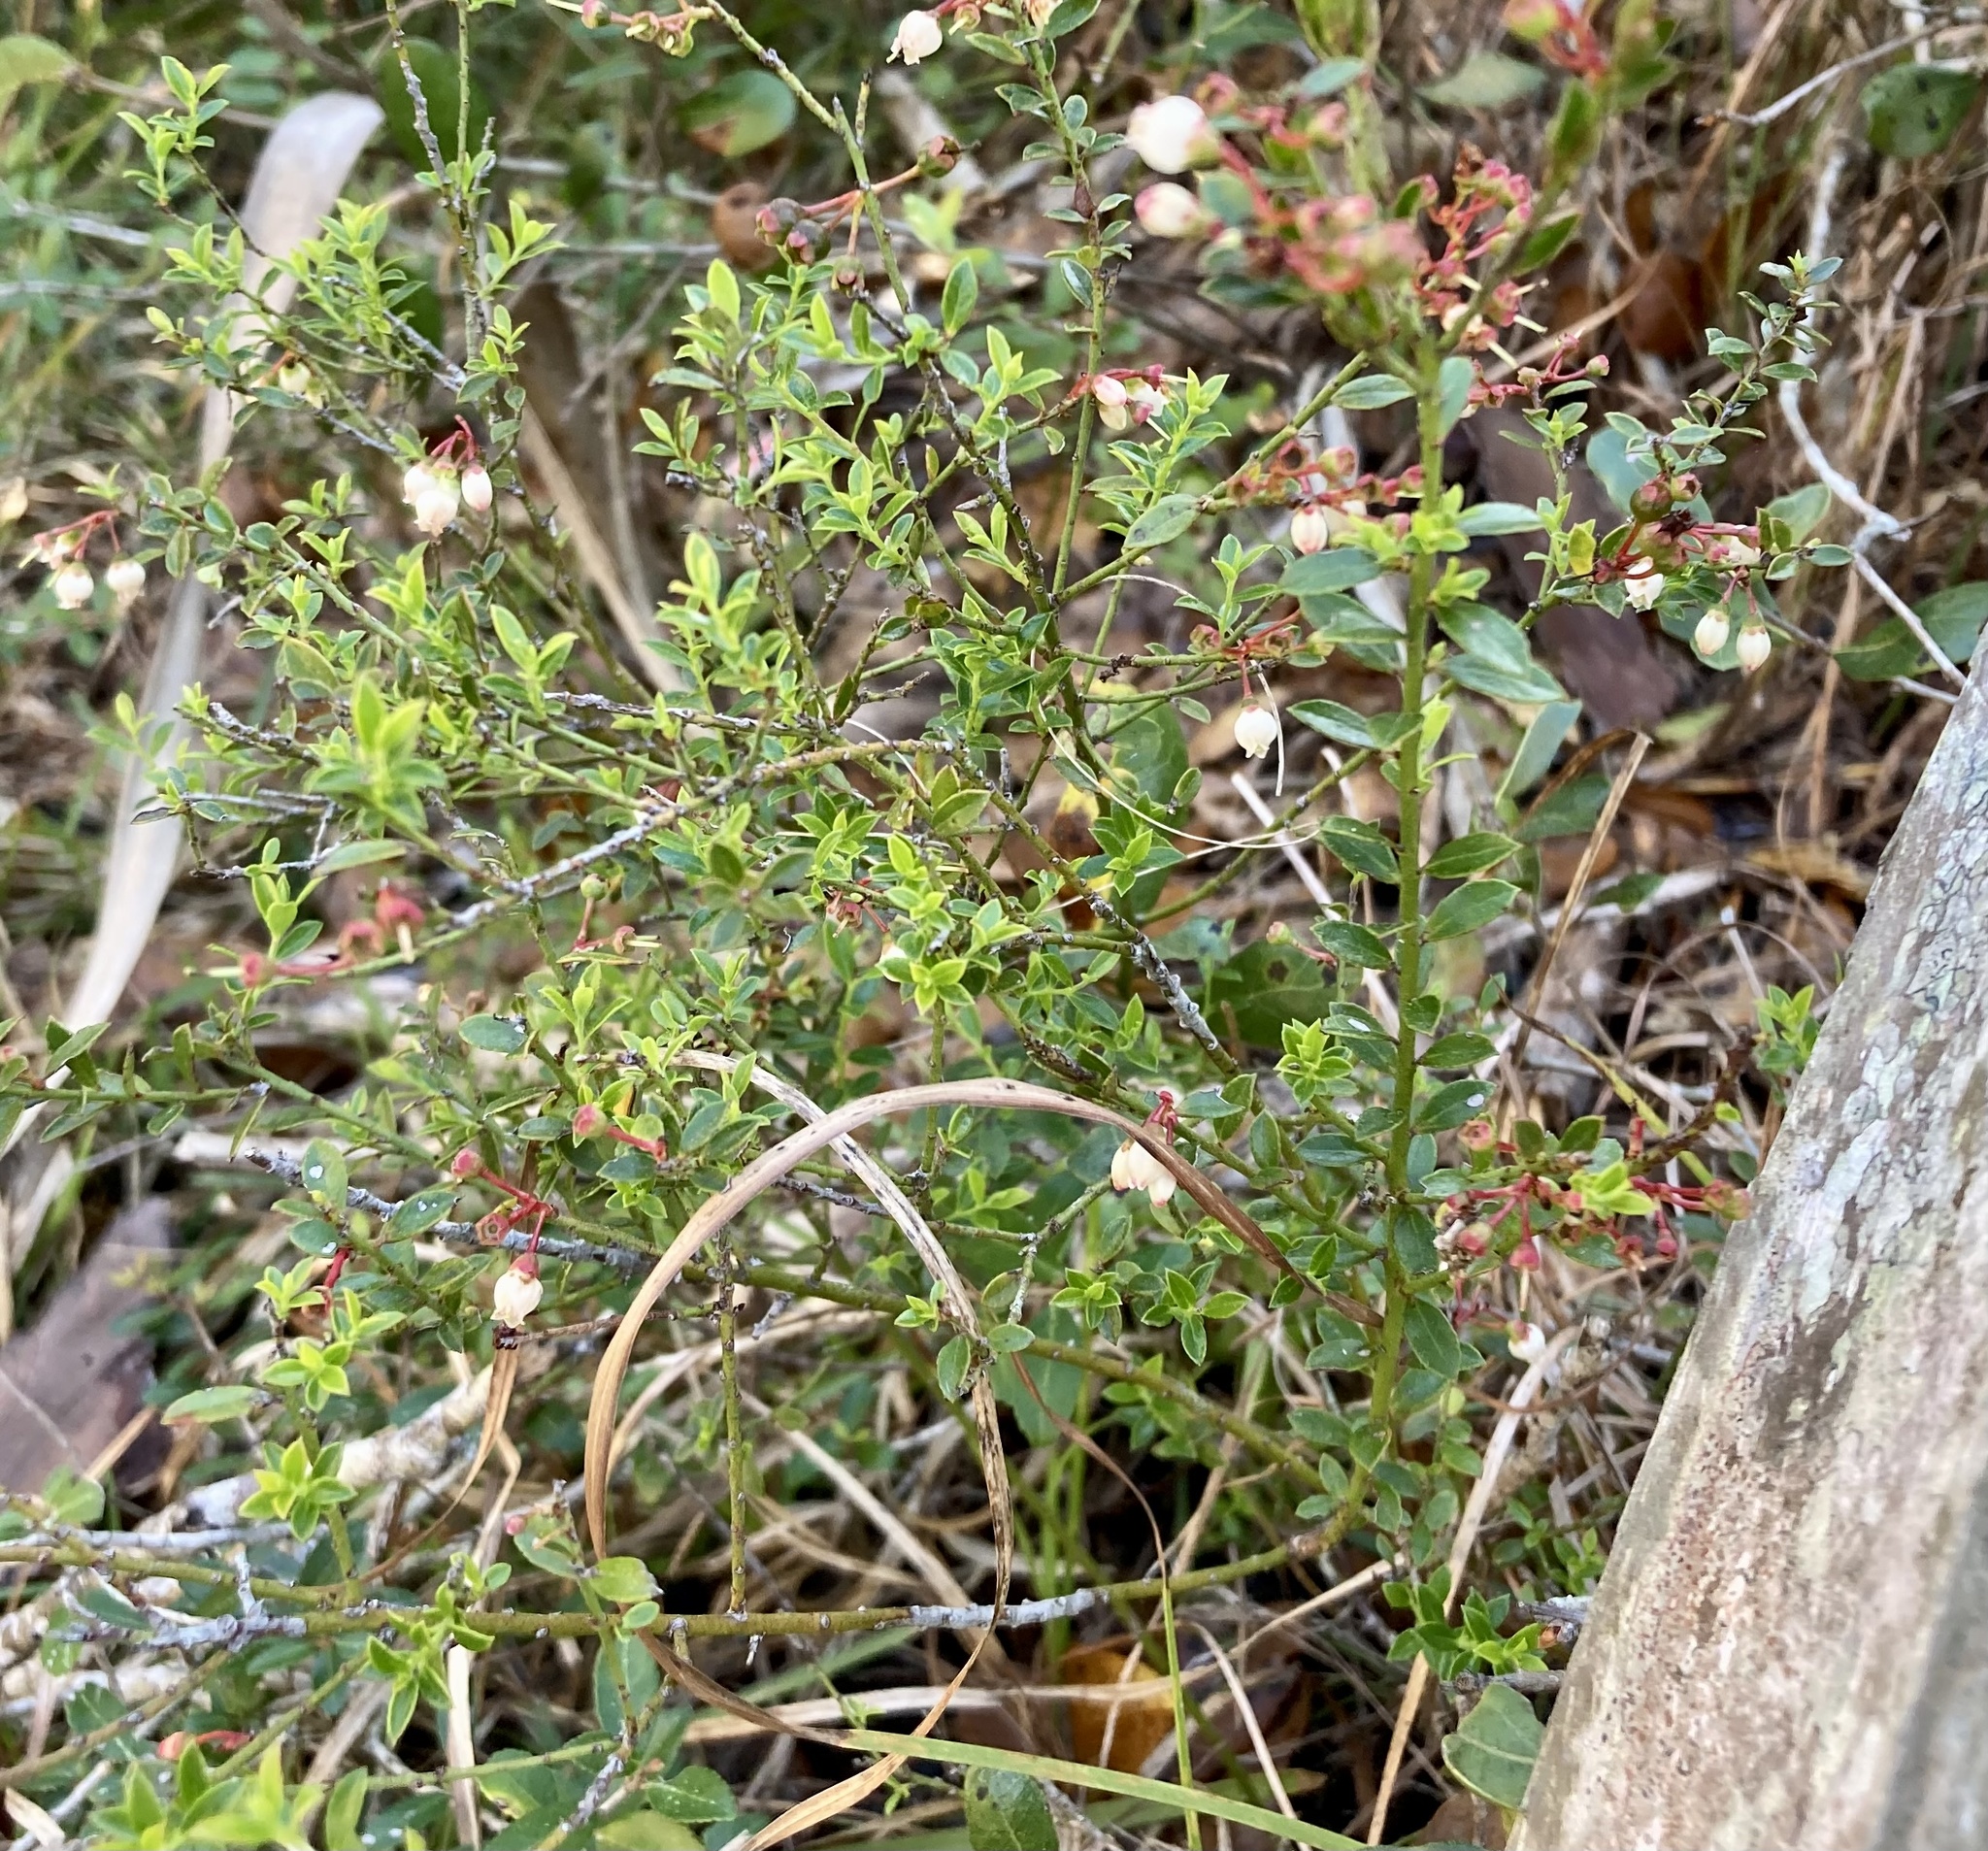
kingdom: Plantae
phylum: Tracheophyta
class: Magnoliopsida
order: Ericales
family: Ericaceae
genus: Vaccinium
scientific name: Vaccinium myrsinites
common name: Evergreen blueberry
